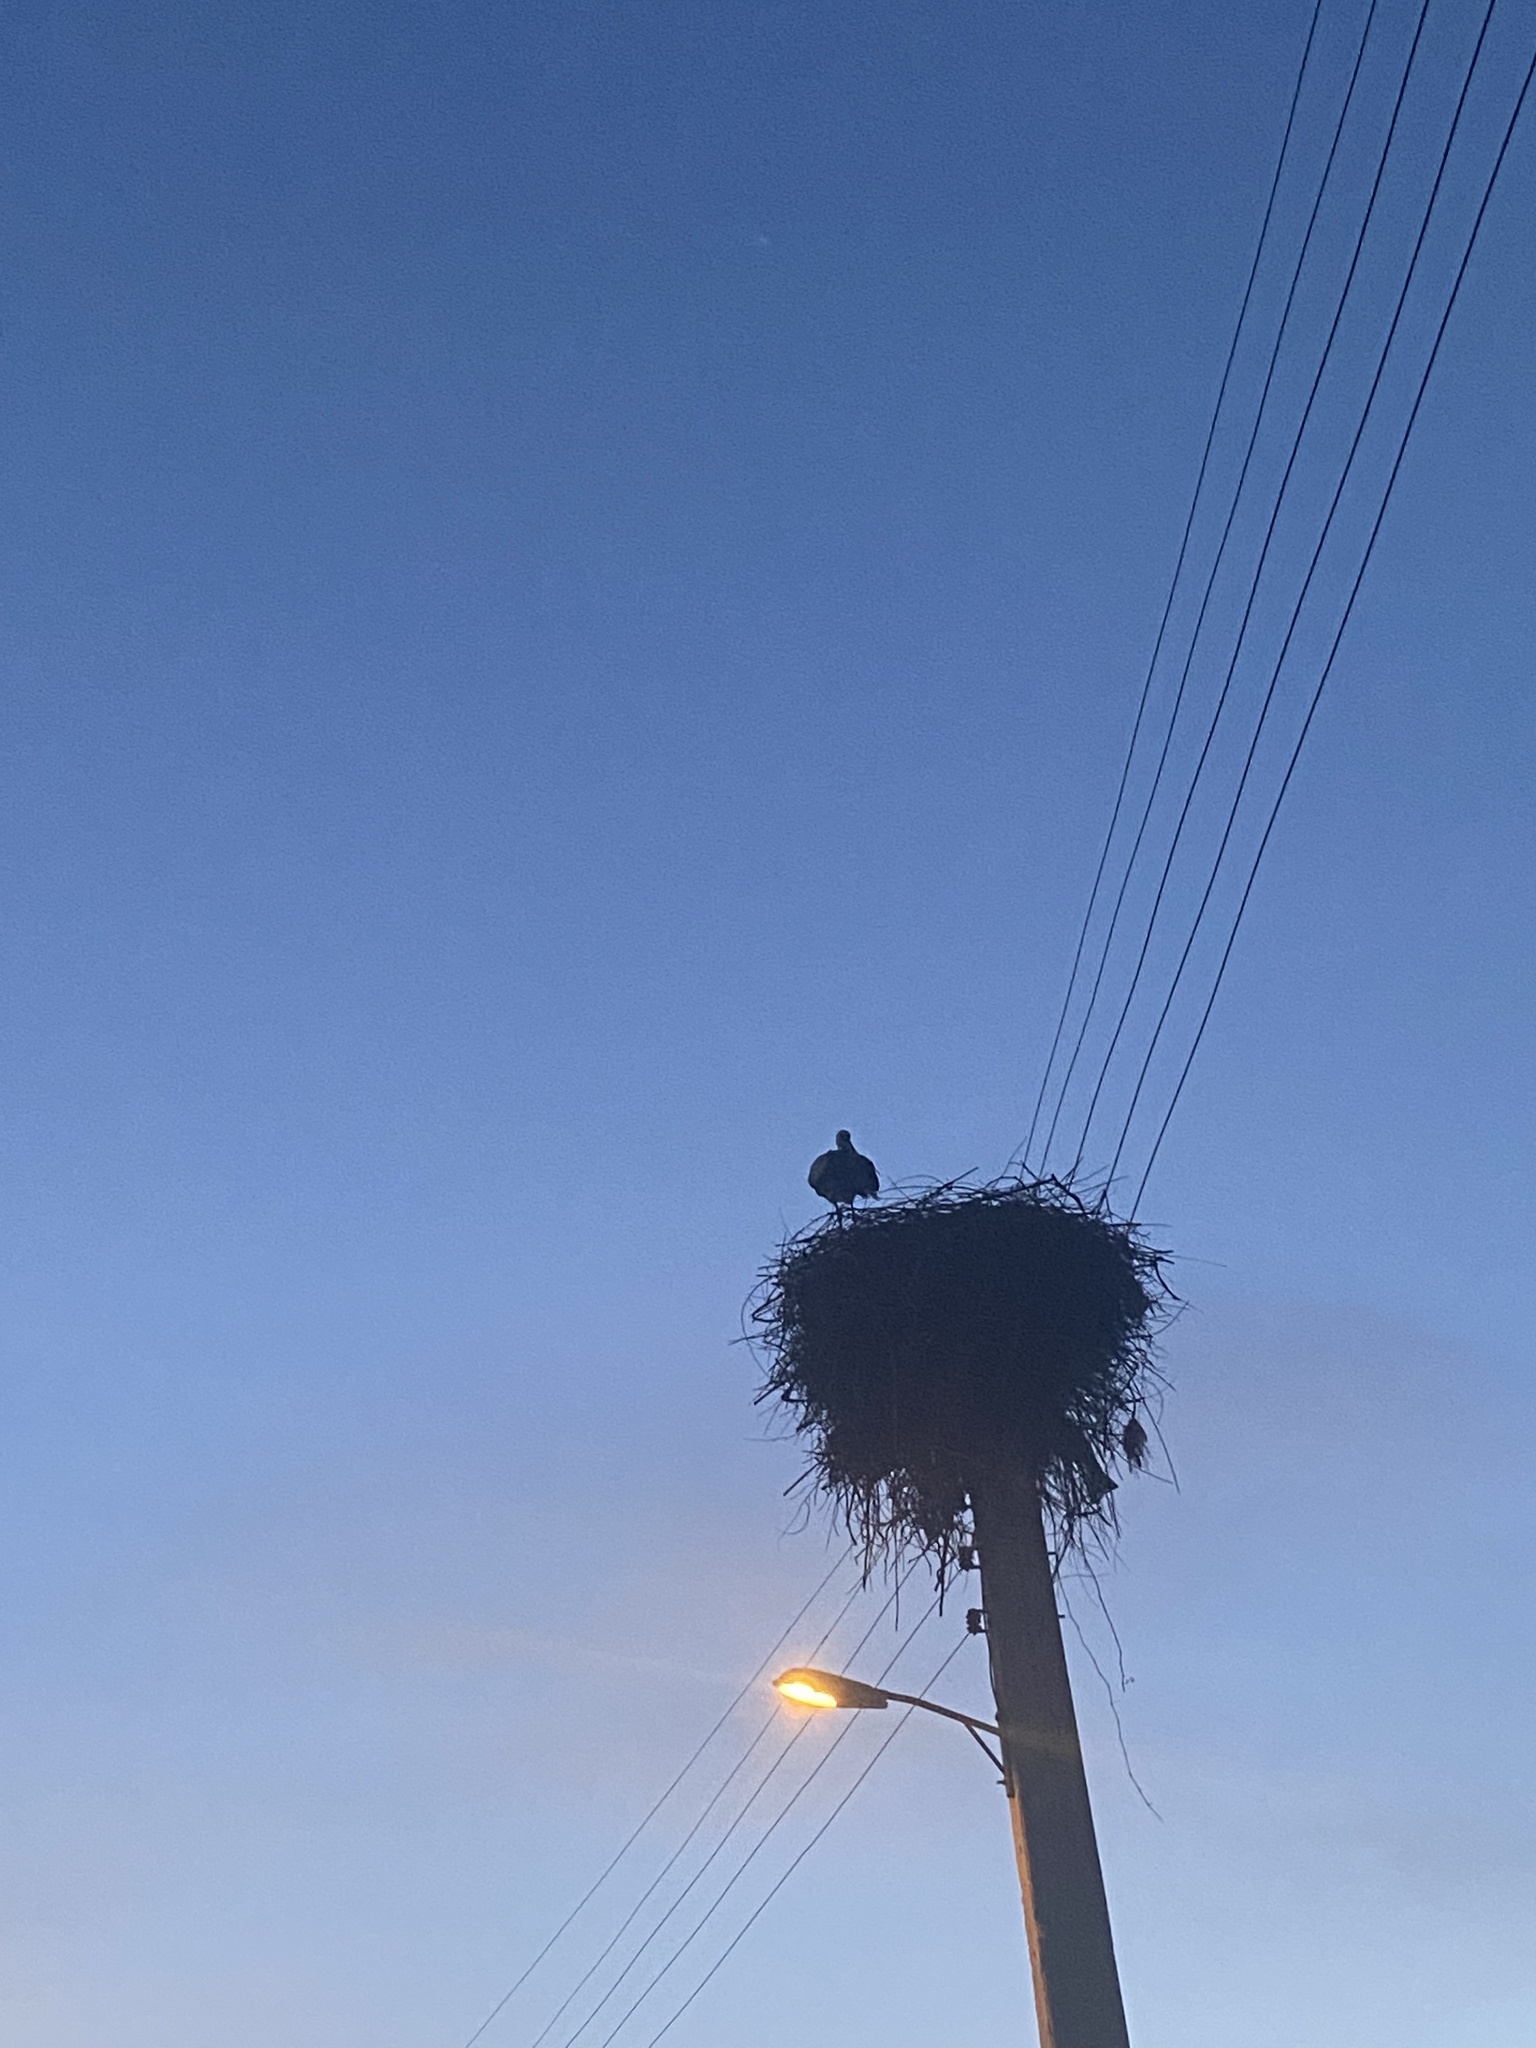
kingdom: Animalia
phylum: Chordata
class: Aves
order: Ciconiiformes
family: Ciconiidae
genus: Ciconia
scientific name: Ciconia ciconia
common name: White stork
